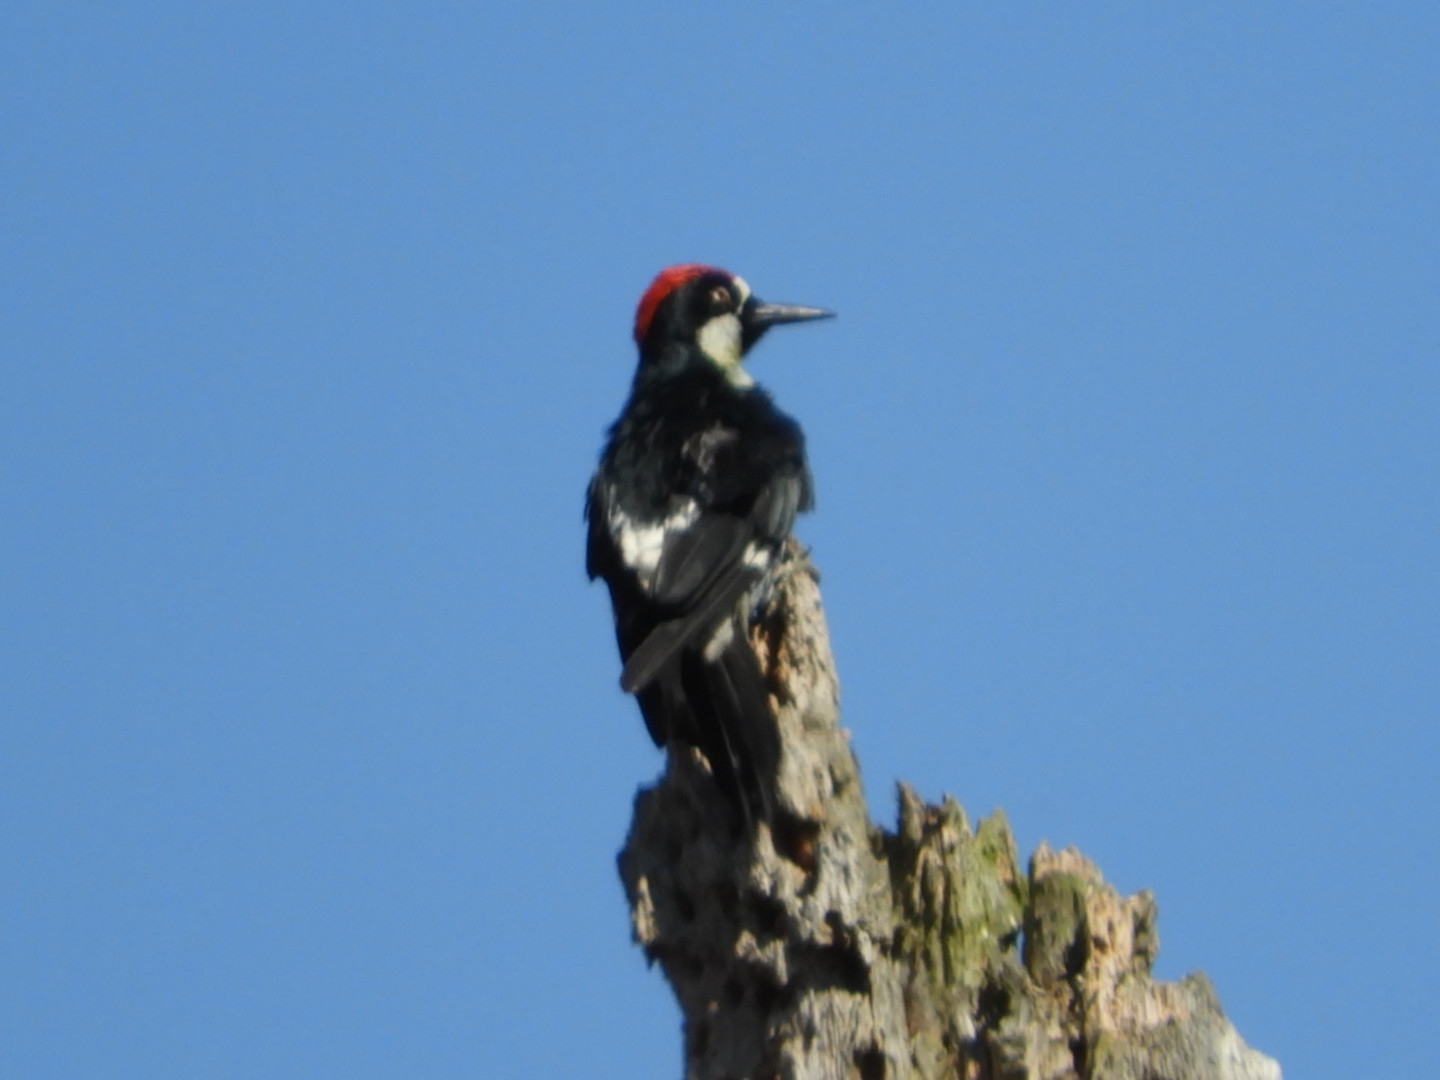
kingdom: Animalia
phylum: Chordata
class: Aves
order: Piciformes
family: Picidae
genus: Melanerpes
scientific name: Melanerpes formicivorus
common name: Acorn woodpecker
